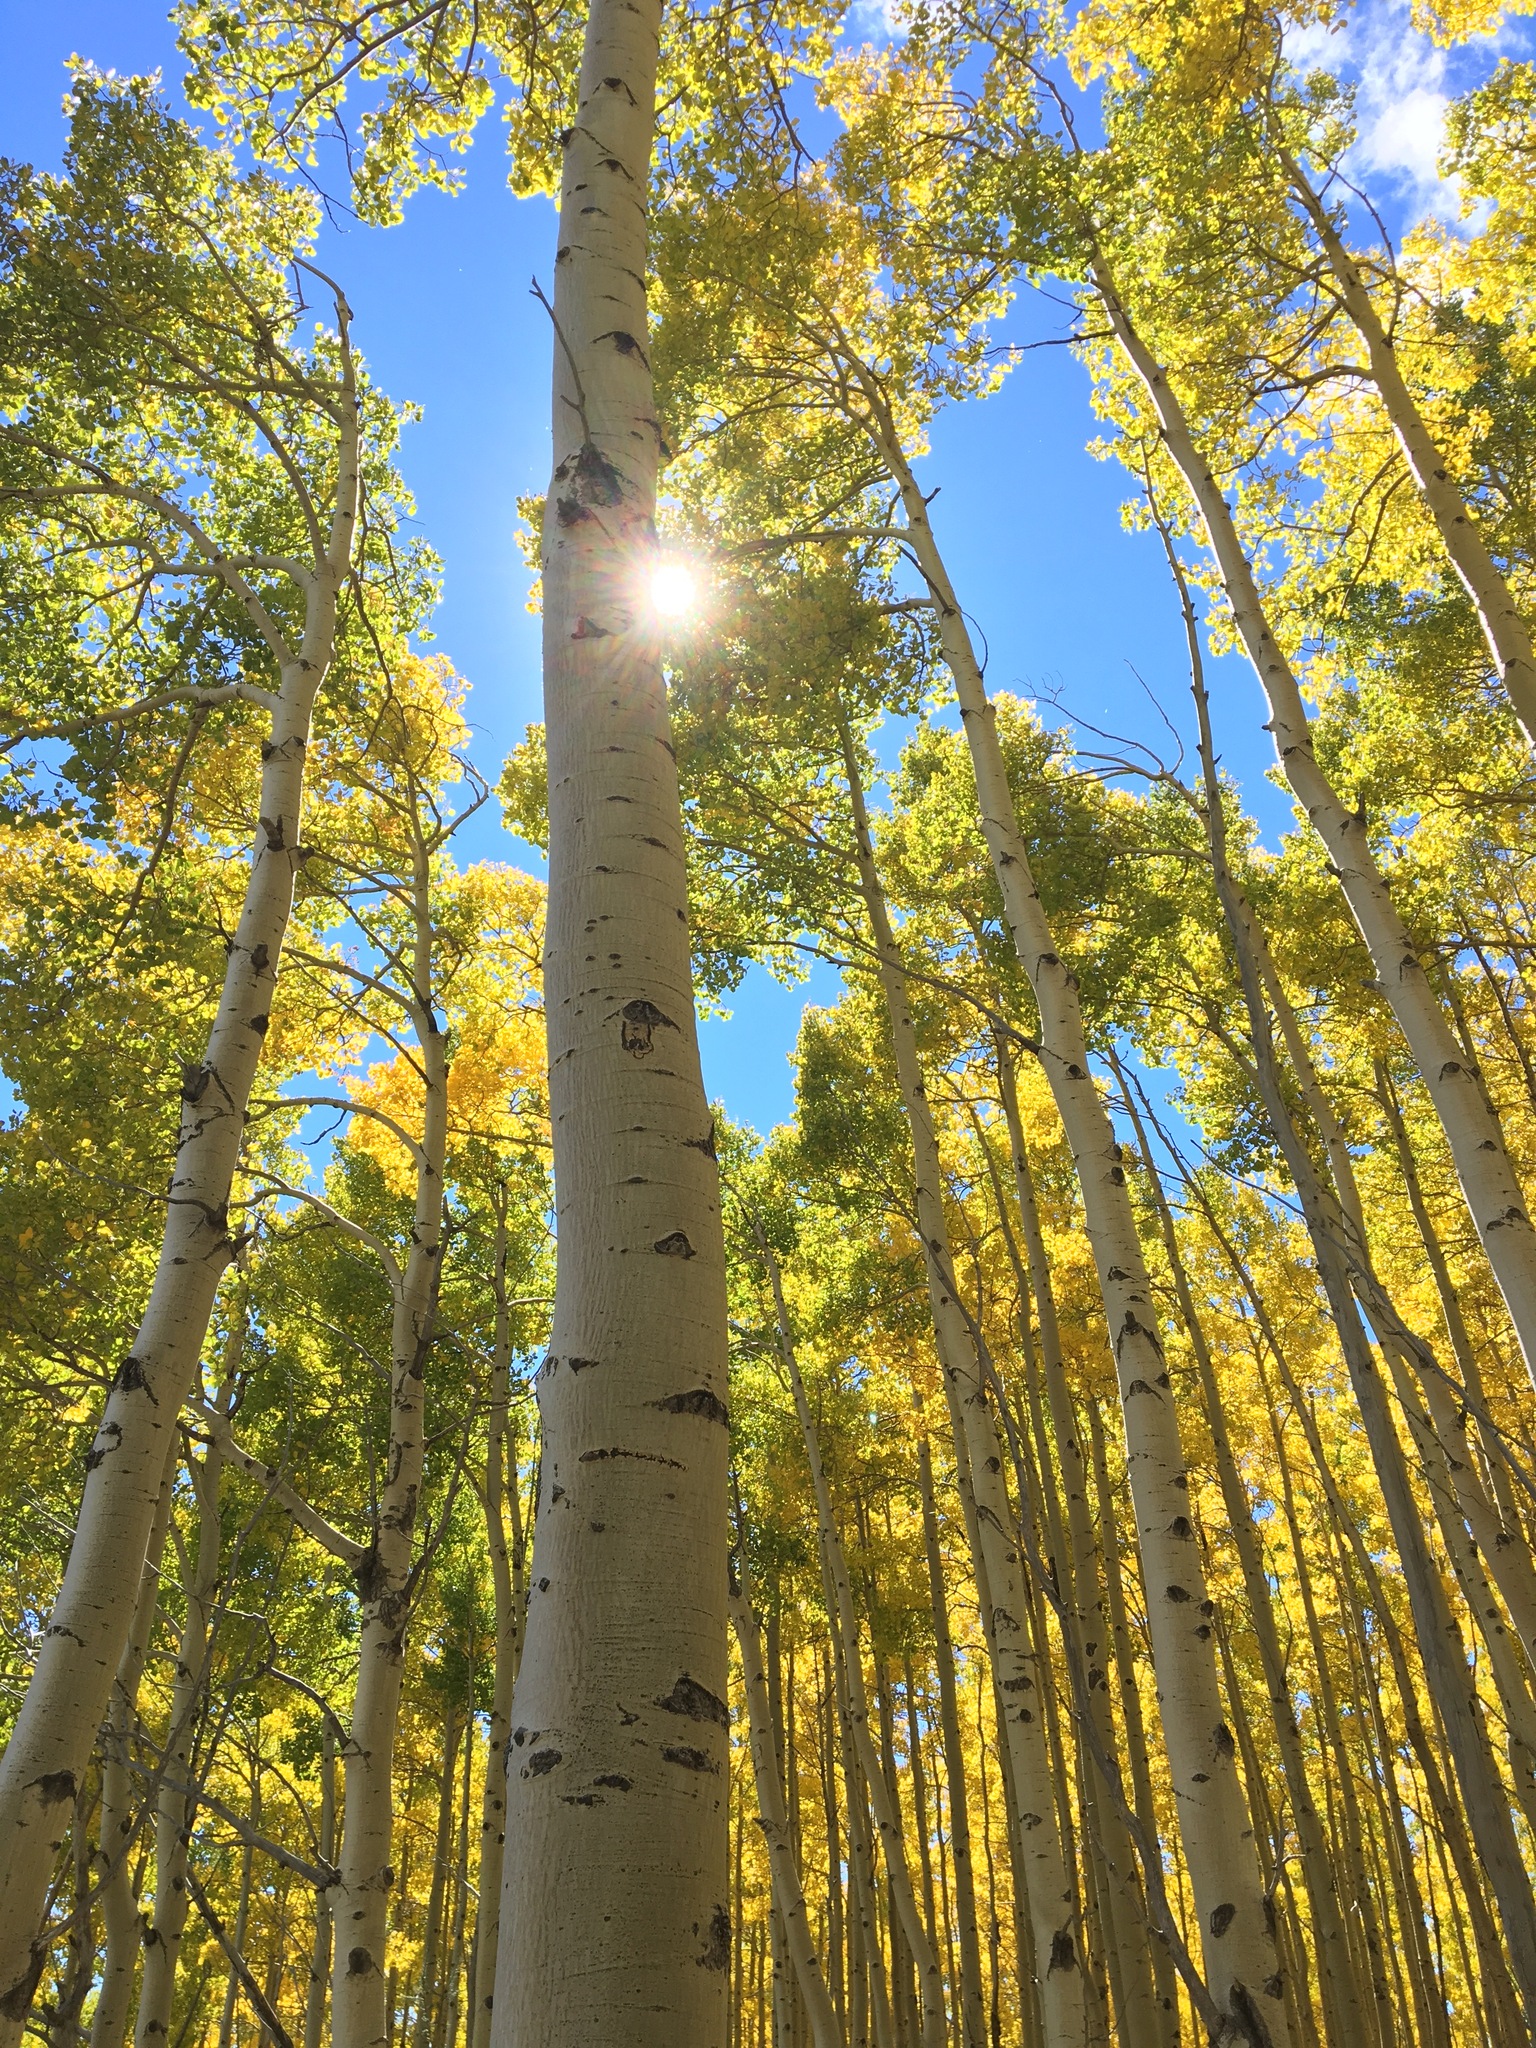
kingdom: Plantae
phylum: Tracheophyta
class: Magnoliopsida
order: Malpighiales
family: Salicaceae
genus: Populus
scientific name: Populus tremuloides
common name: Quaking aspen
